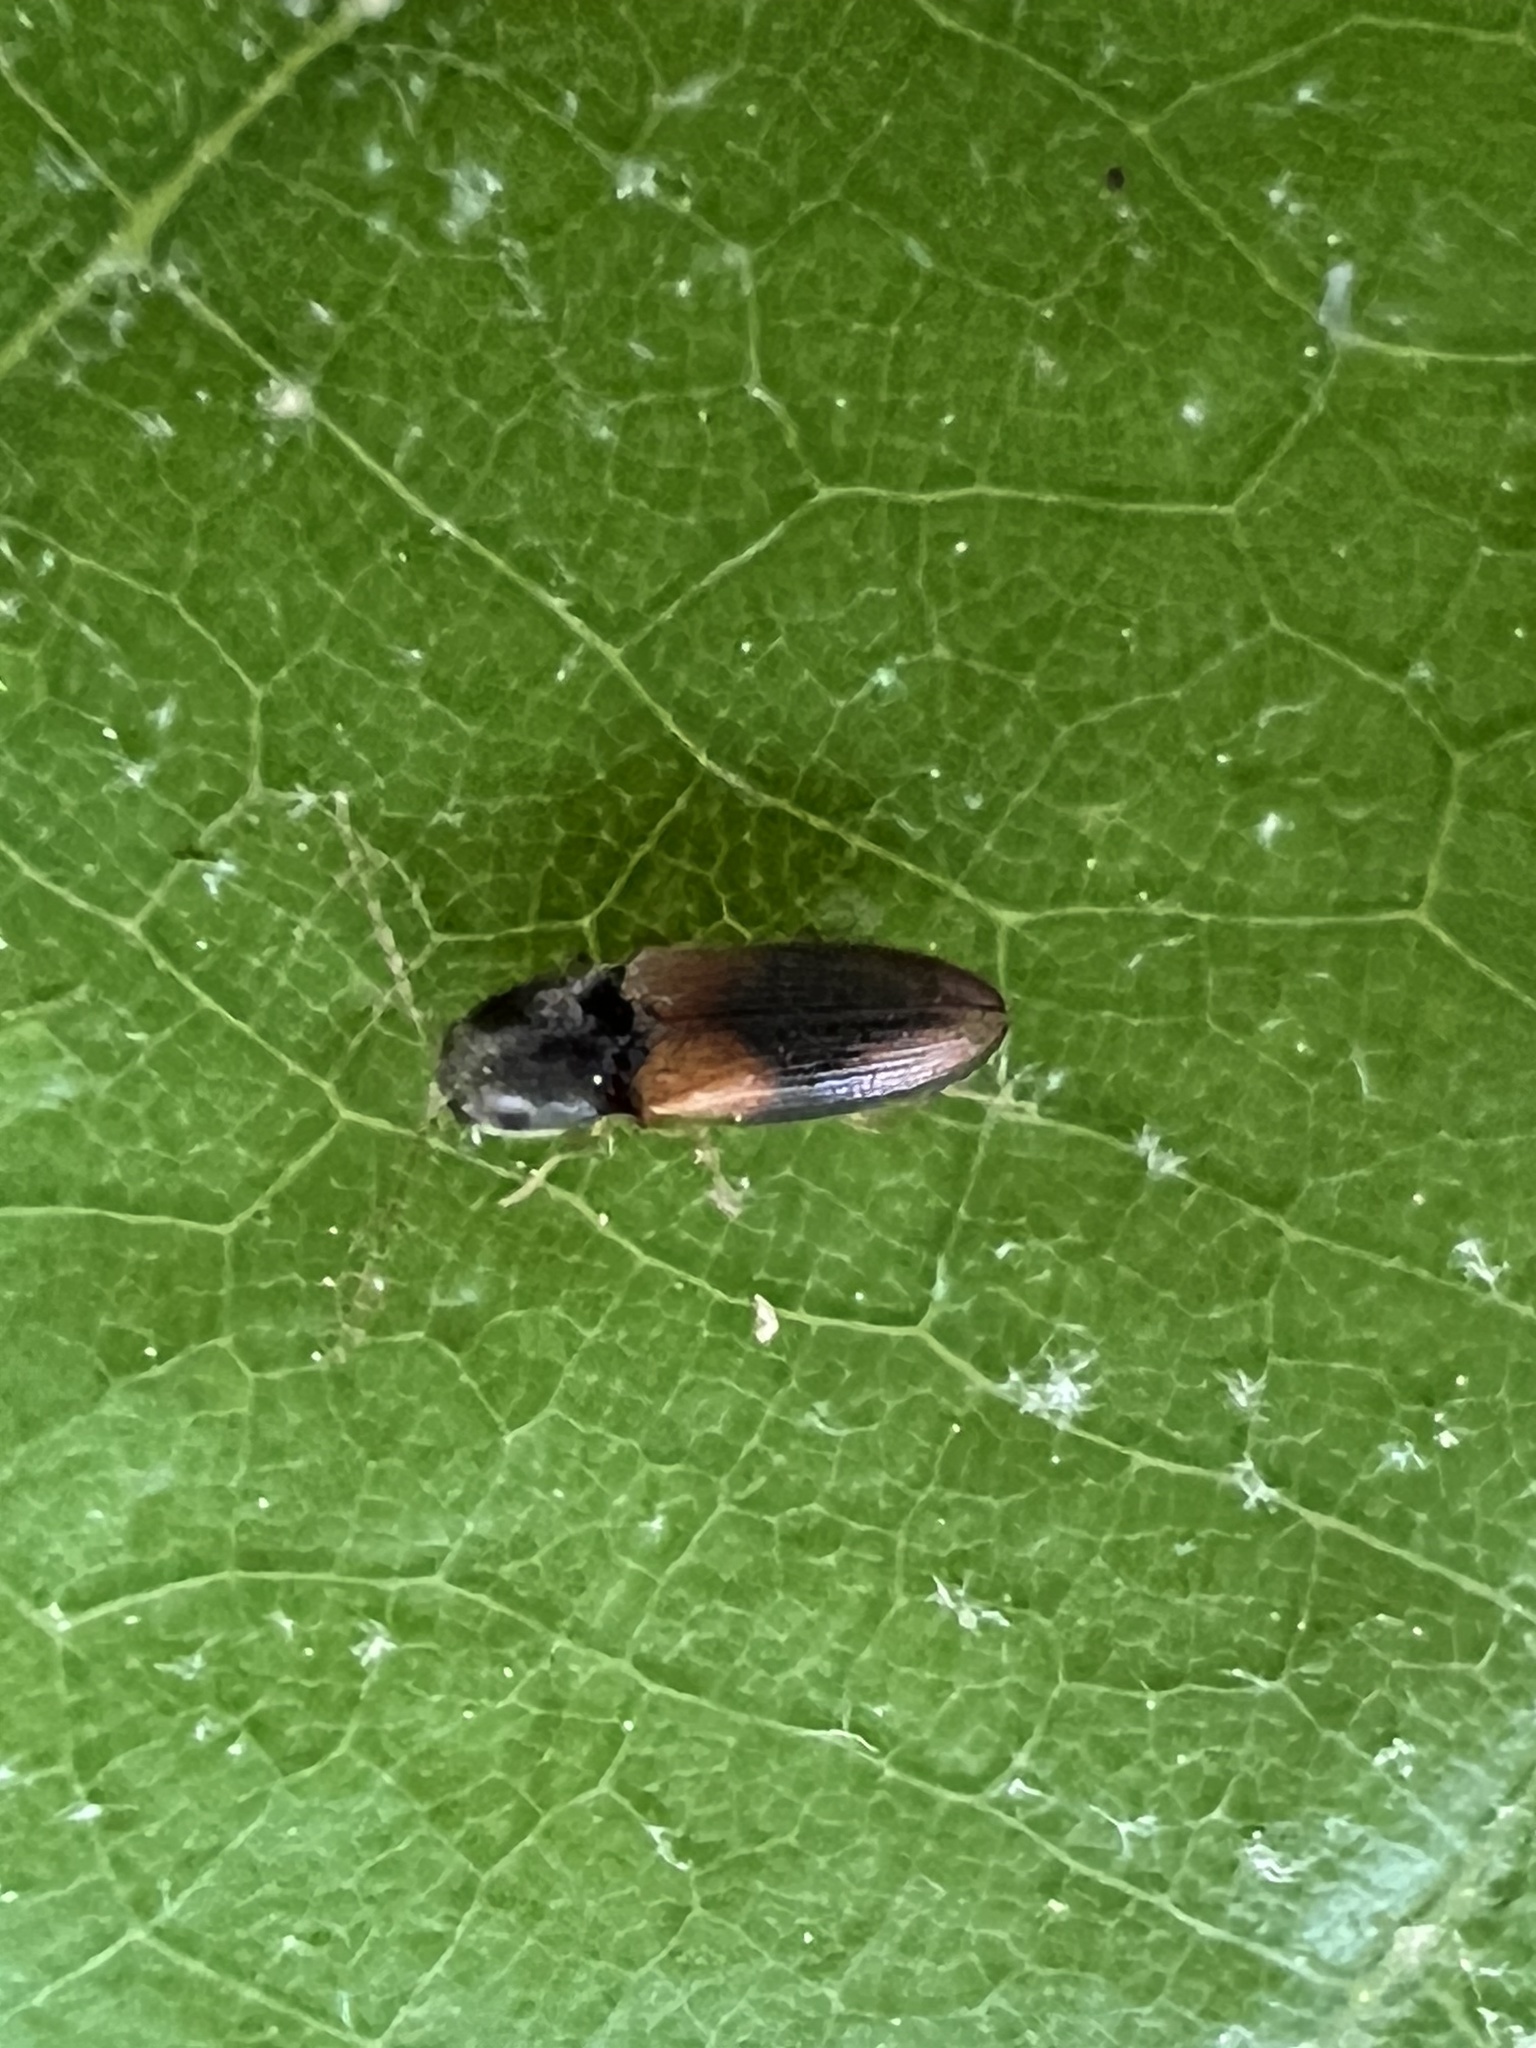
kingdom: Animalia
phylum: Arthropoda
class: Insecta
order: Coleoptera
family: Elateridae
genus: Horistonotus
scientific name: Horistonotus curiatus
